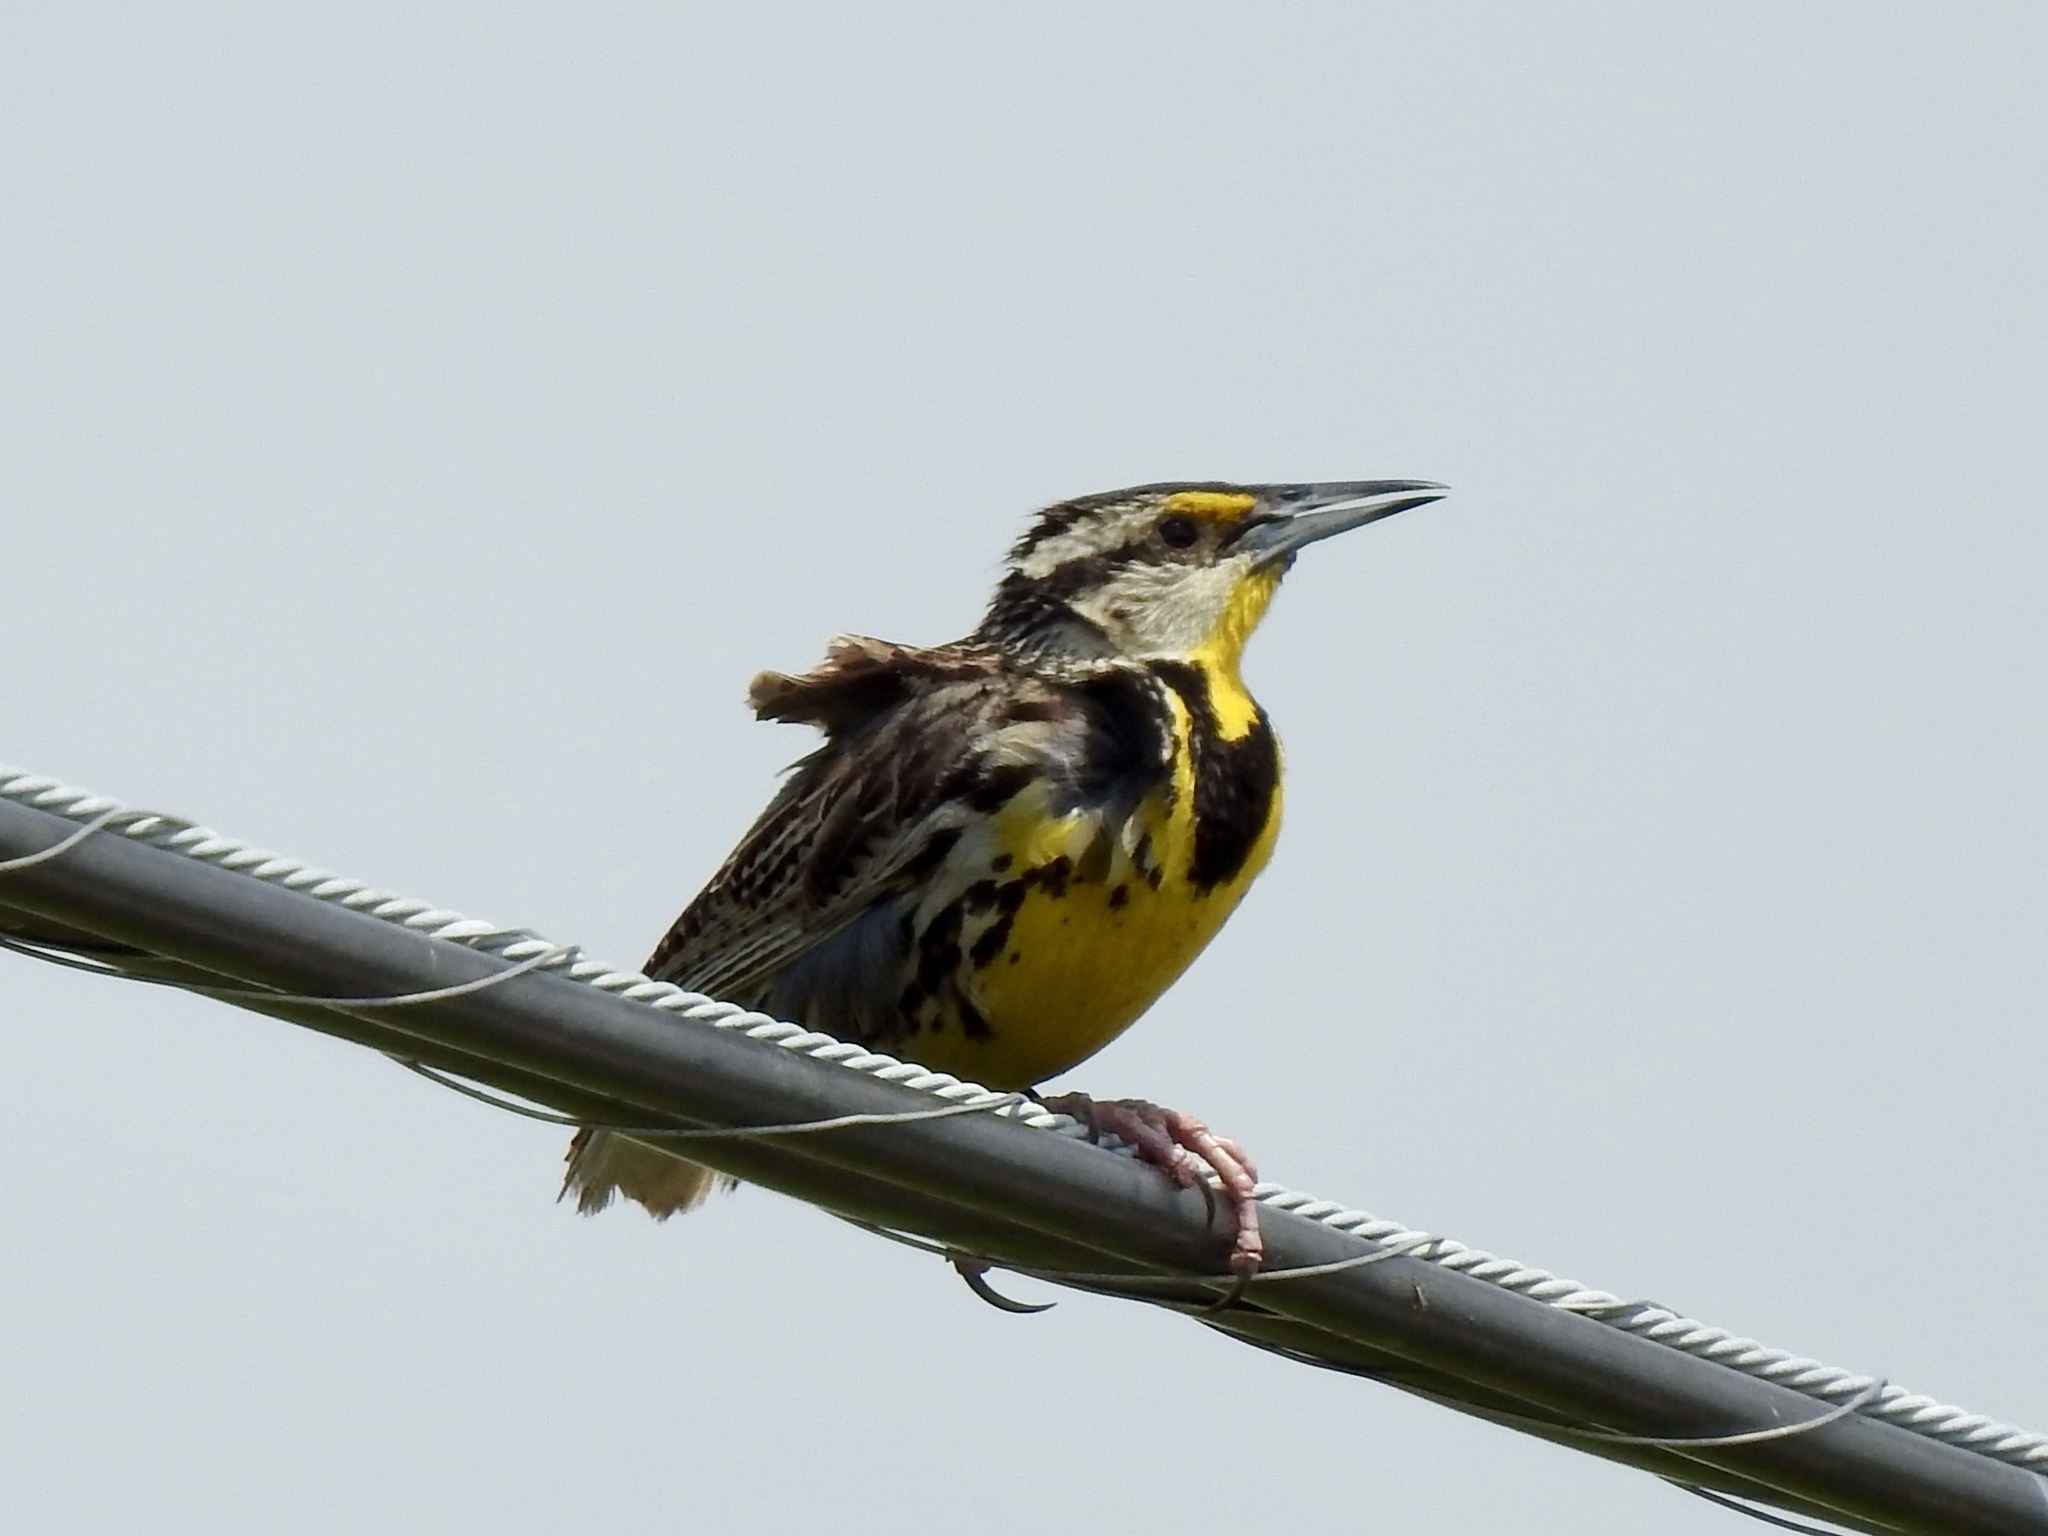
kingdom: Animalia
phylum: Chordata
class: Aves
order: Passeriformes
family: Icteridae
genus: Sturnella
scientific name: Sturnella magna
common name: Eastern meadowlark
